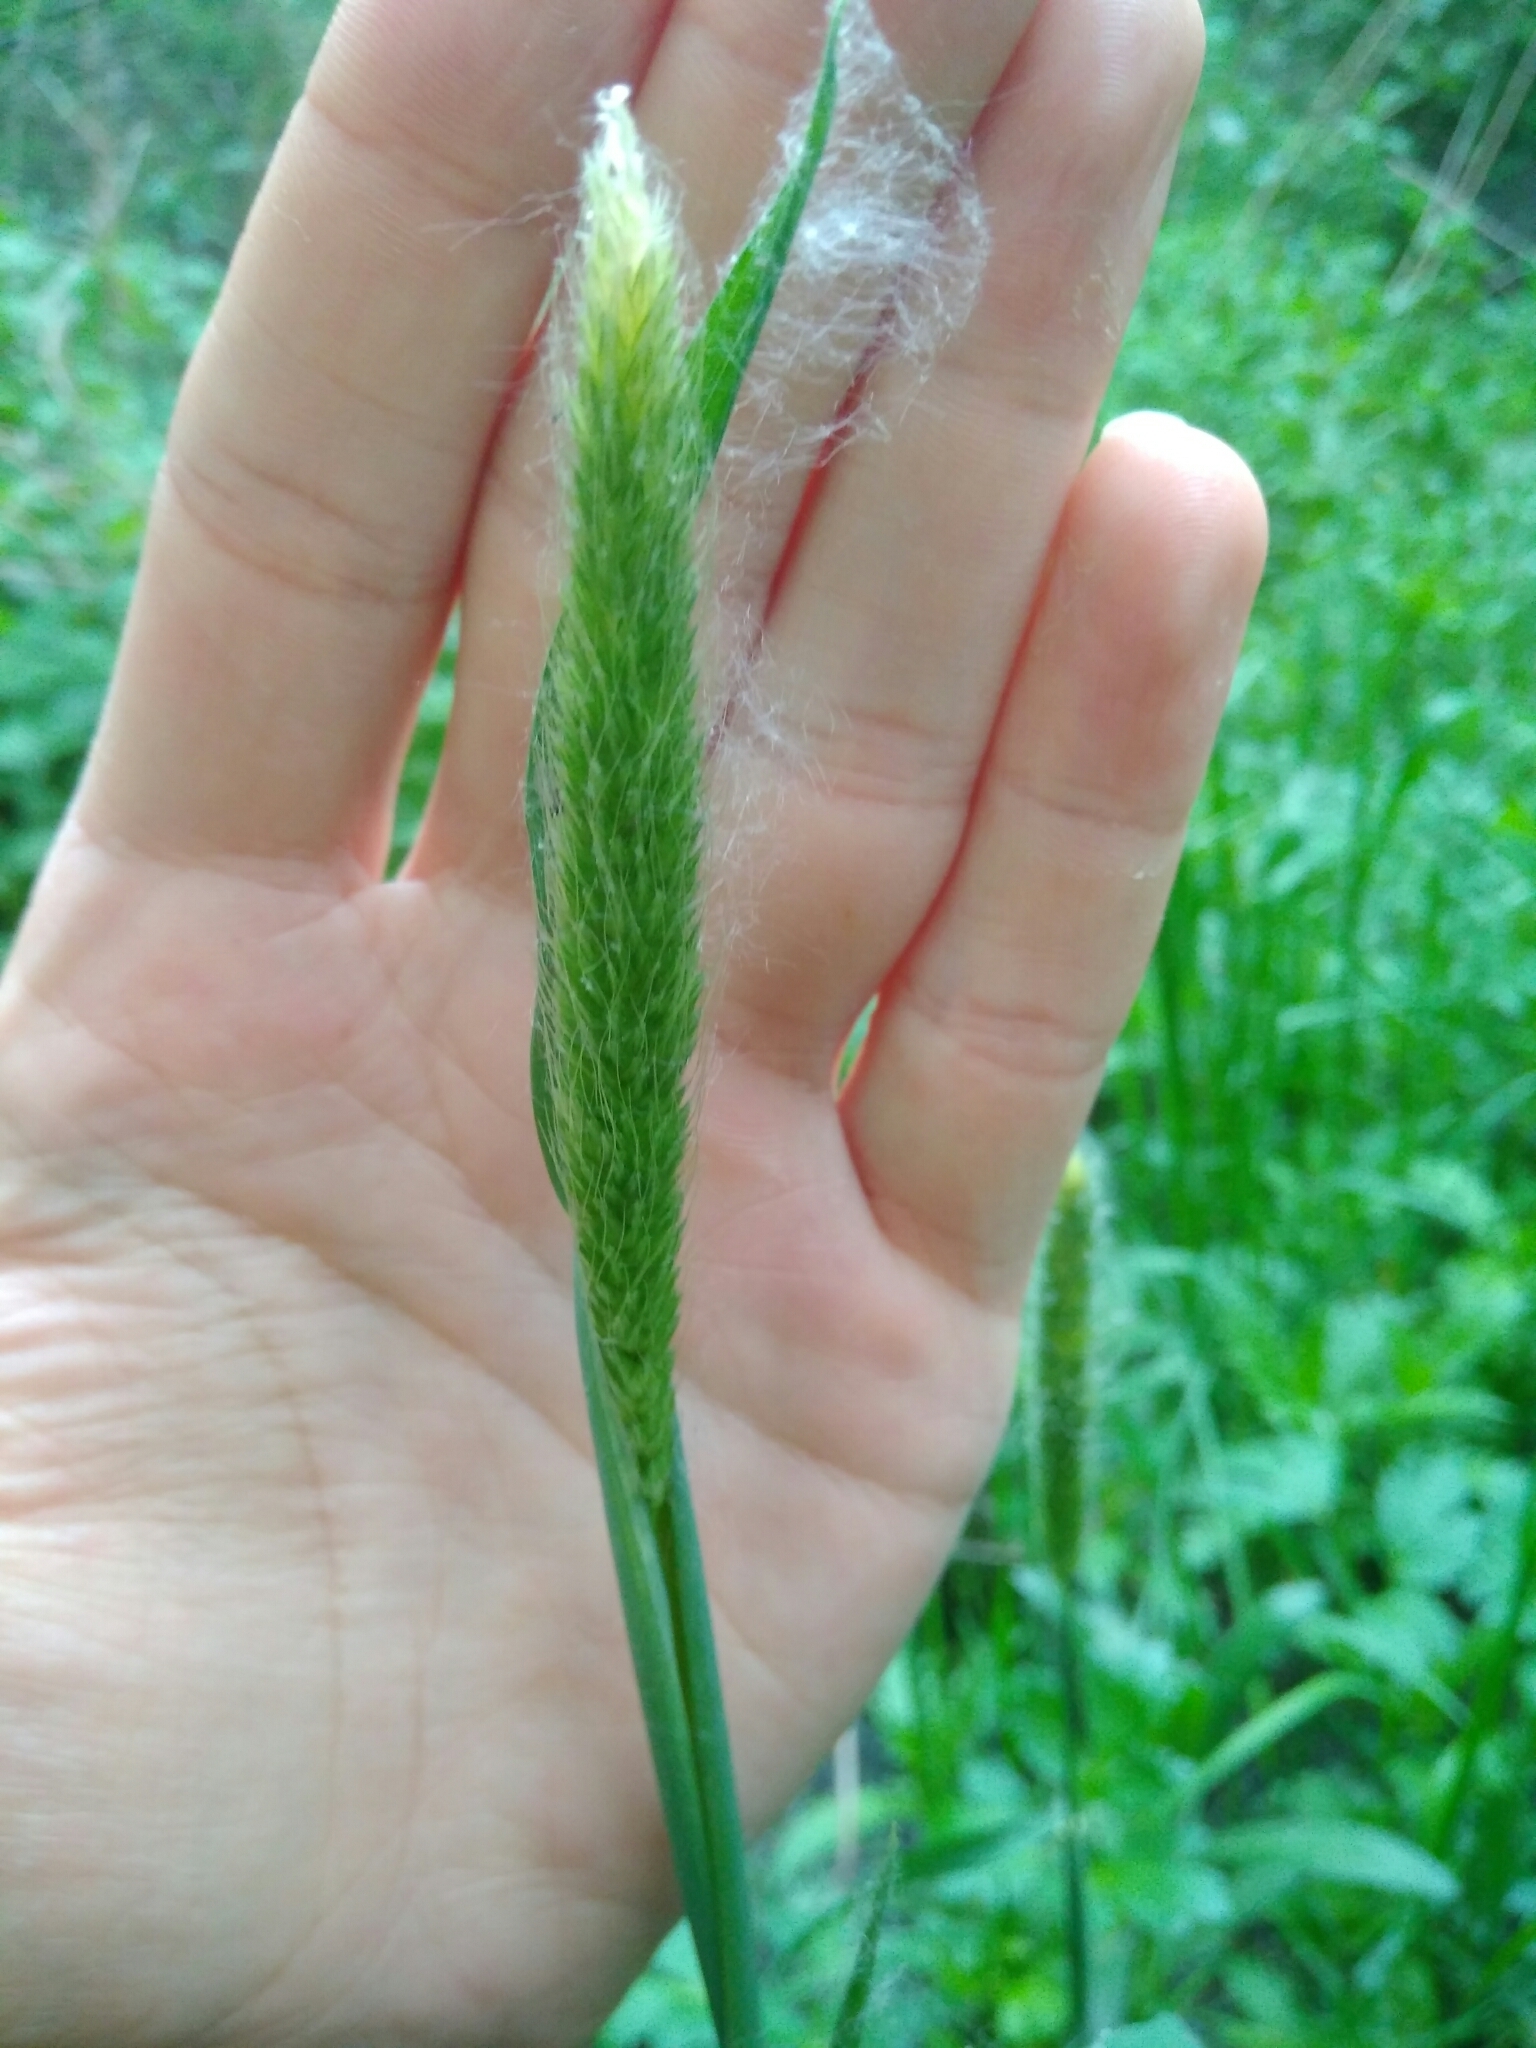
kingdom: Plantae
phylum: Tracheophyta
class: Liliopsida
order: Poales
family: Poaceae
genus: Alopecurus
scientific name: Alopecurus pratensis
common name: Meadow foxtail
